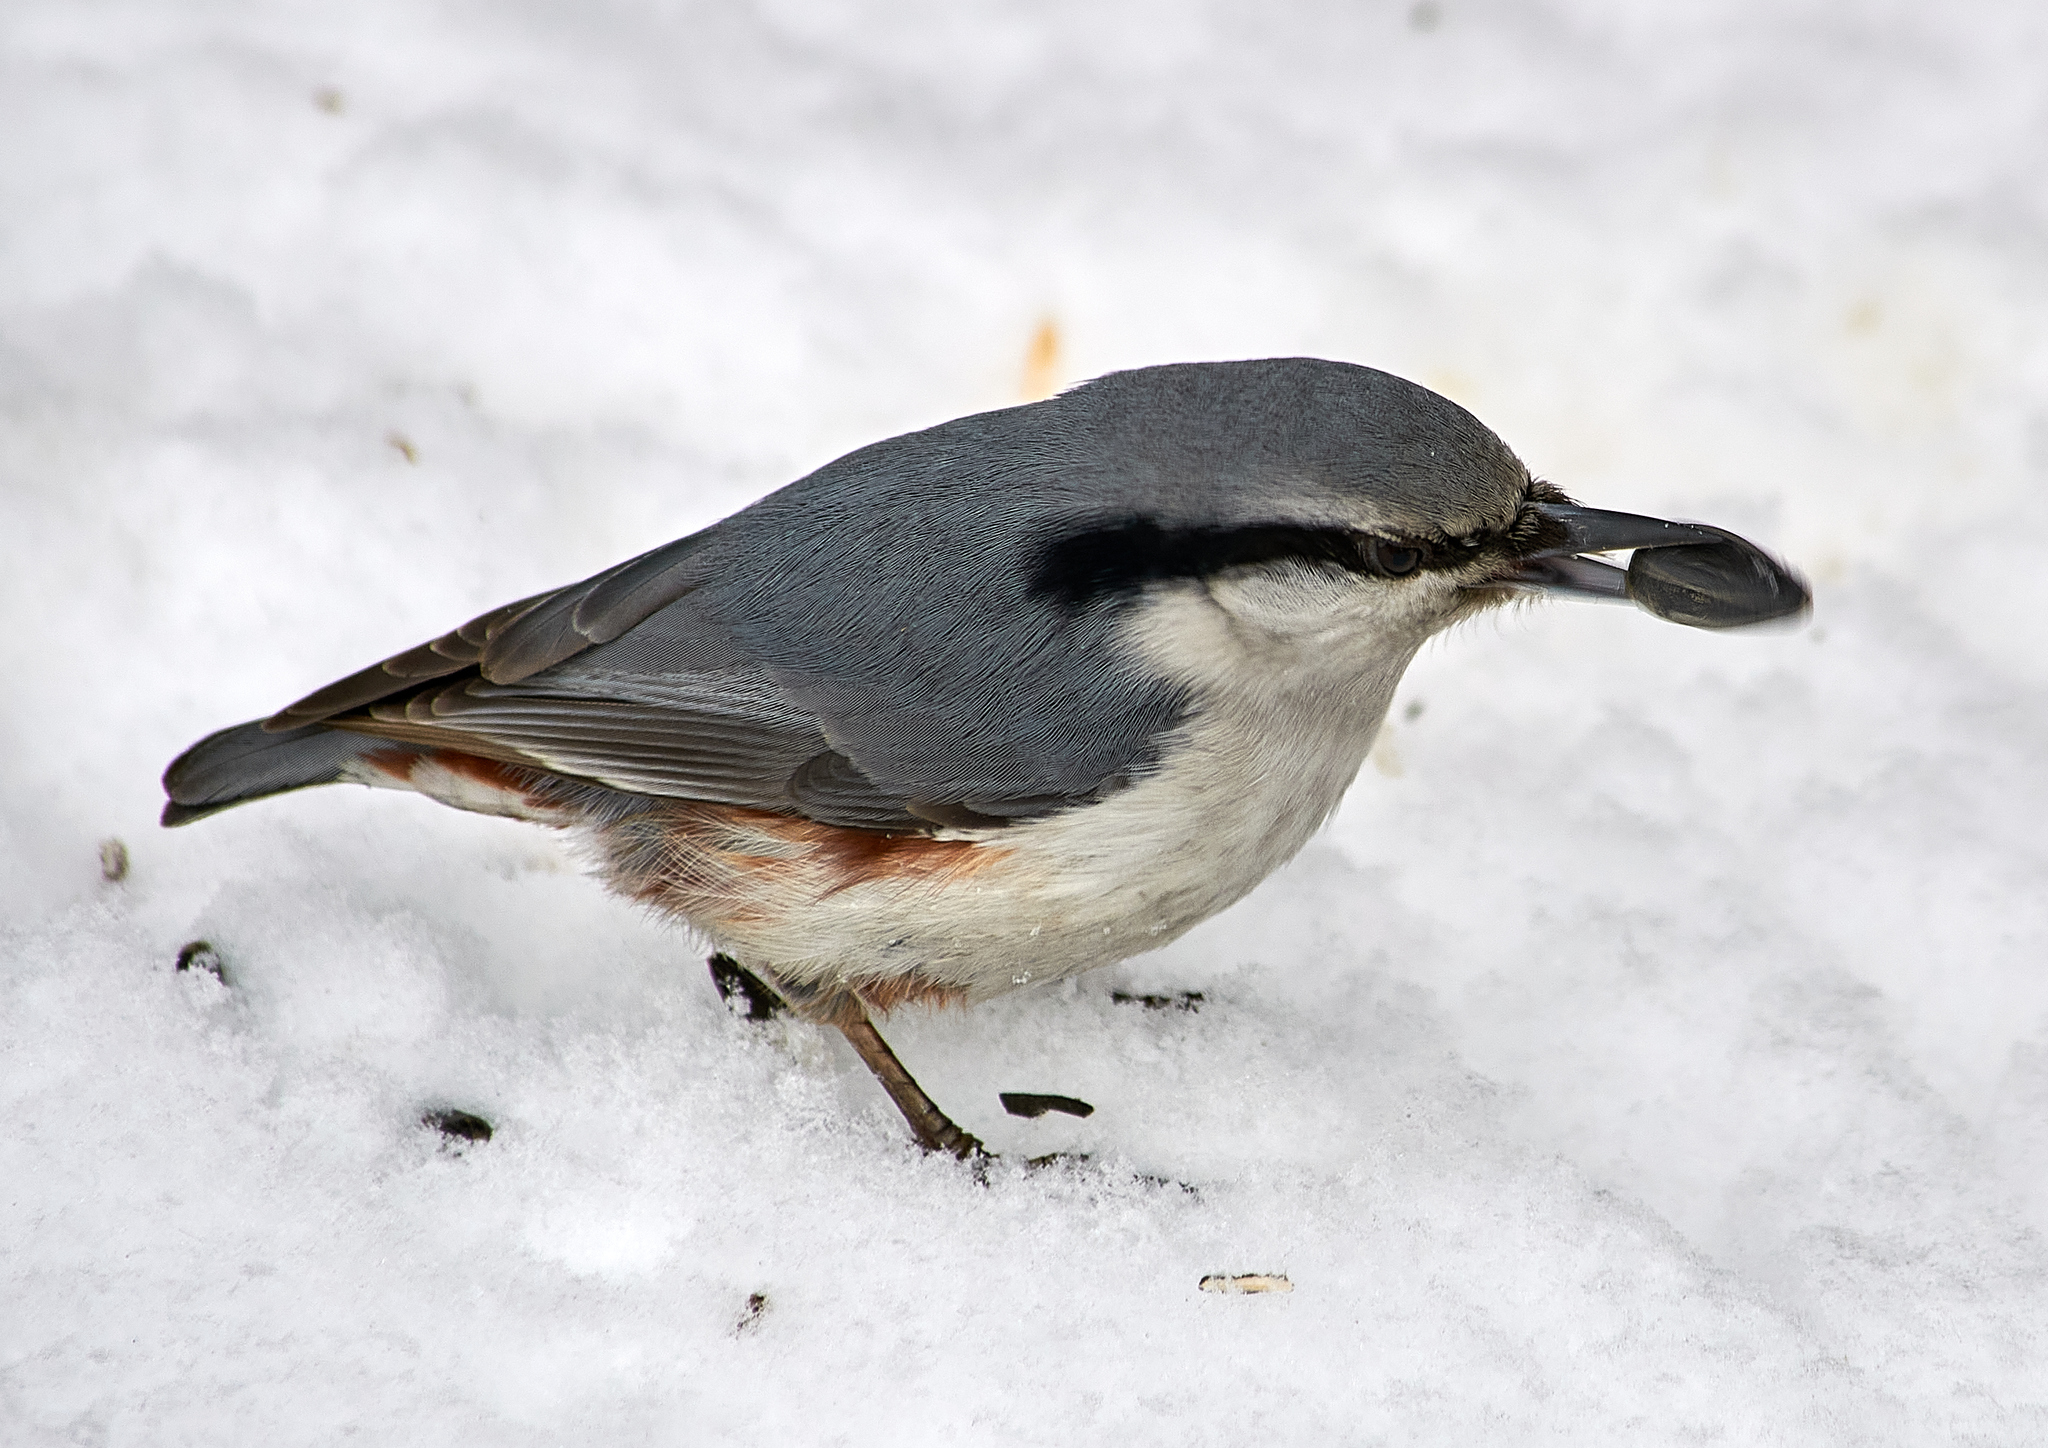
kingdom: Animalia
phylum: Chordata
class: Aves
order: Passeriformes
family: Sittidae
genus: Sitta
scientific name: Sitta europaea
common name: Eurasian nuthatch
